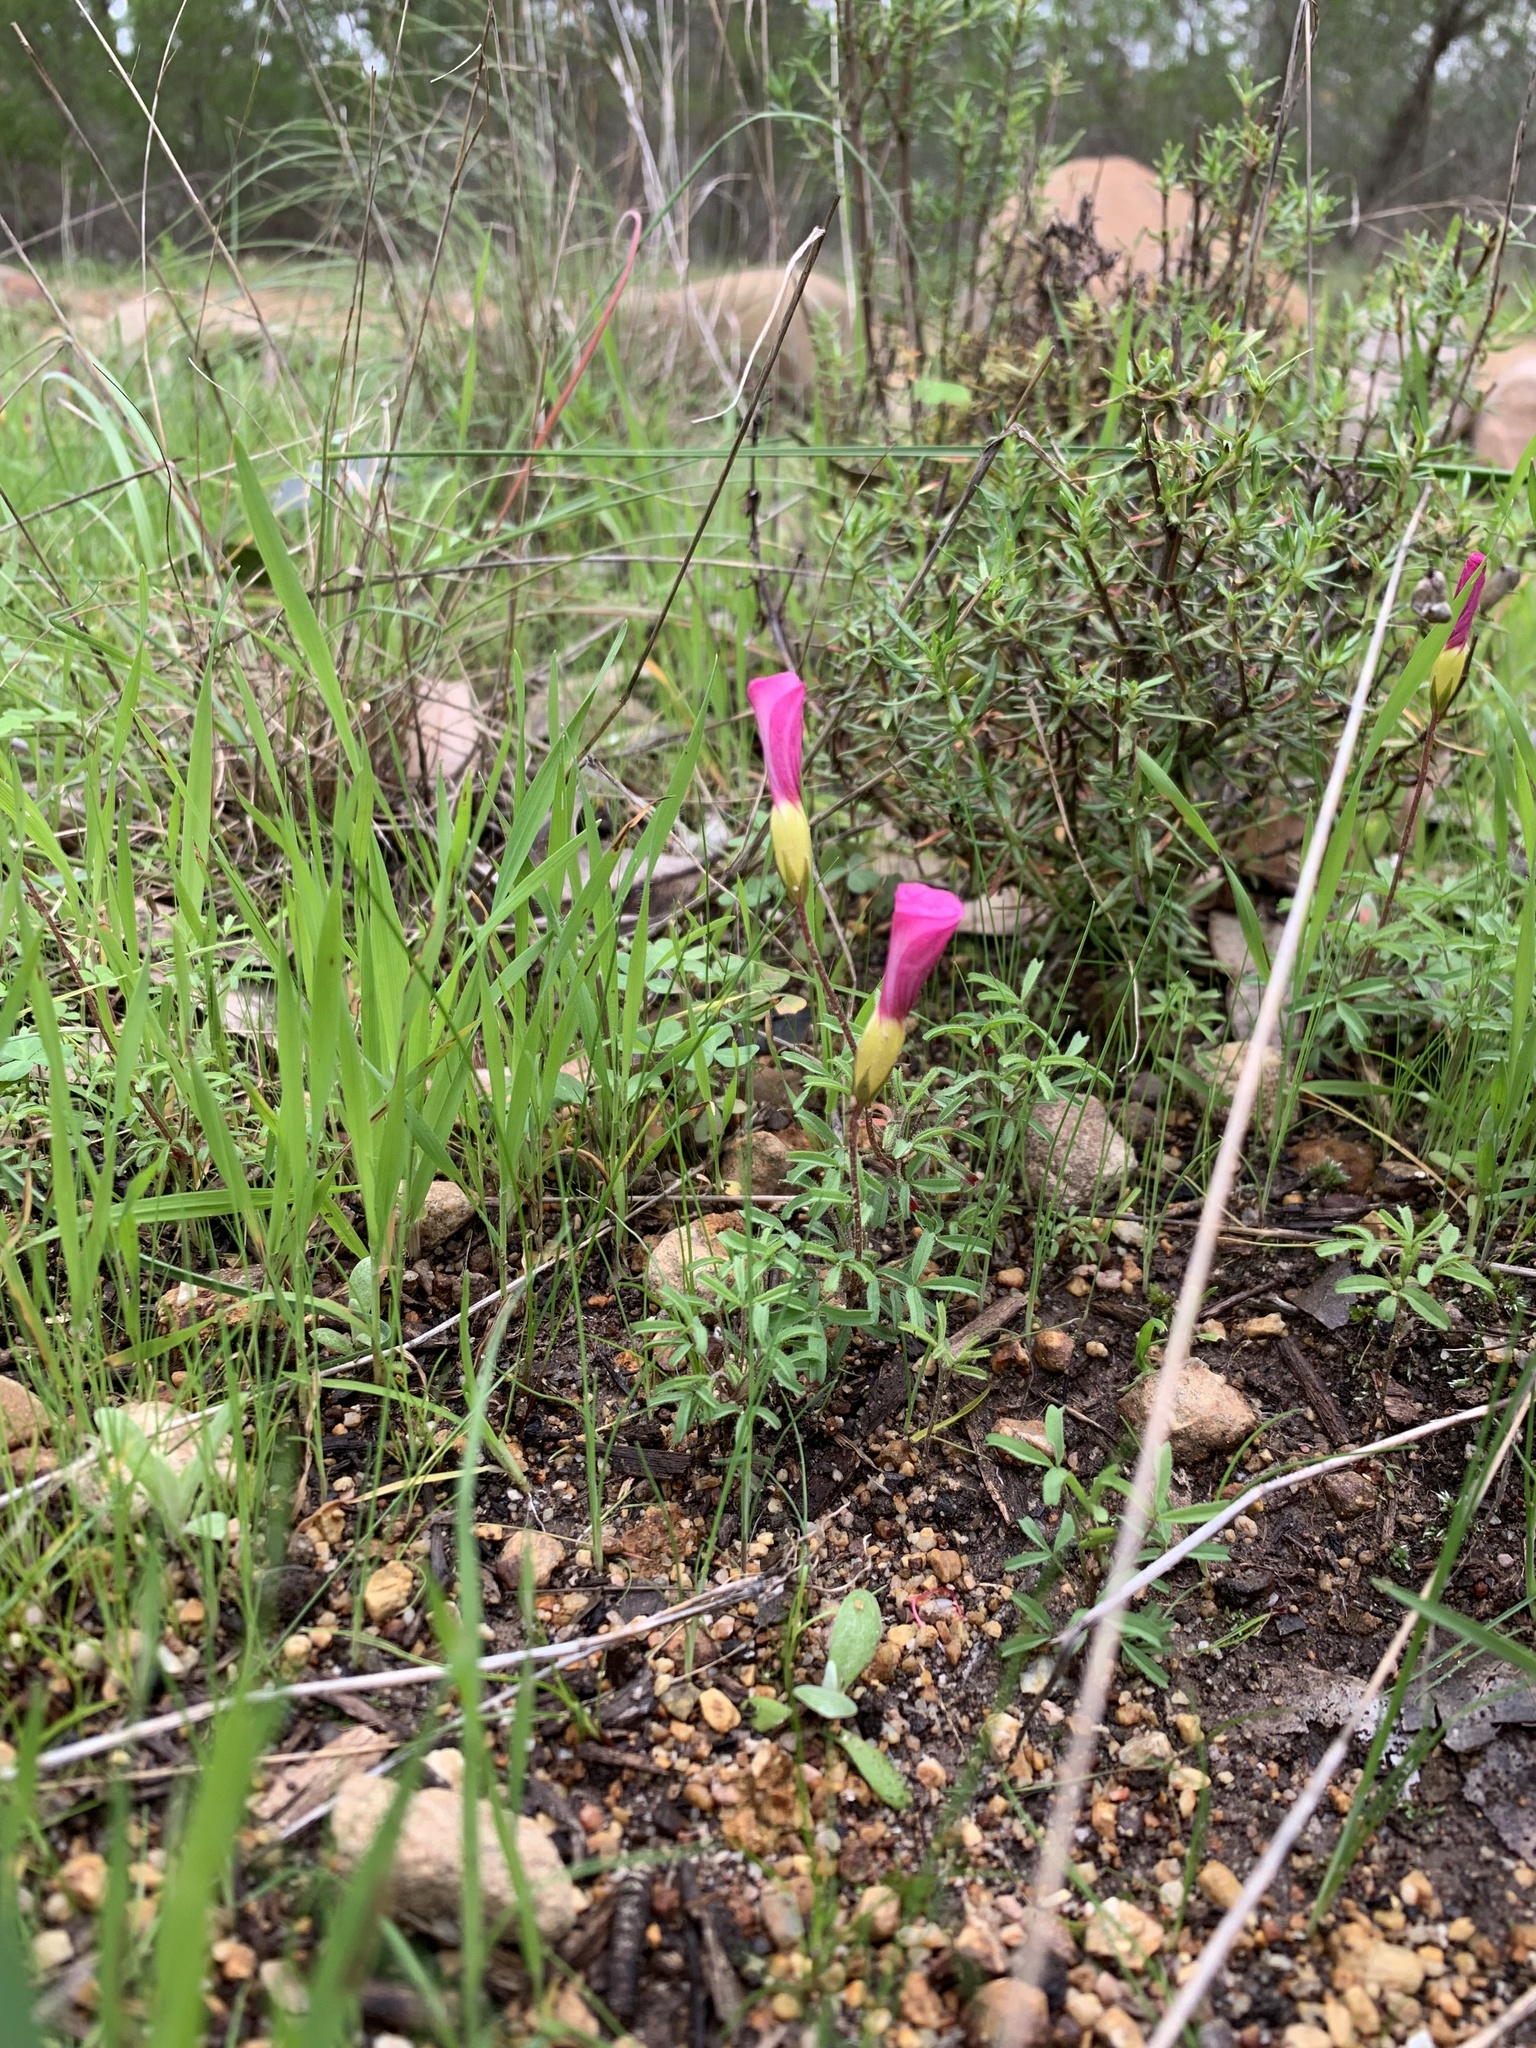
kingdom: Plantae
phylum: Tracheophyta
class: Magnoliopsida
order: Oxalidales
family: Oxalidaceae
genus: Oxalis
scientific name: Oxalis glabra
